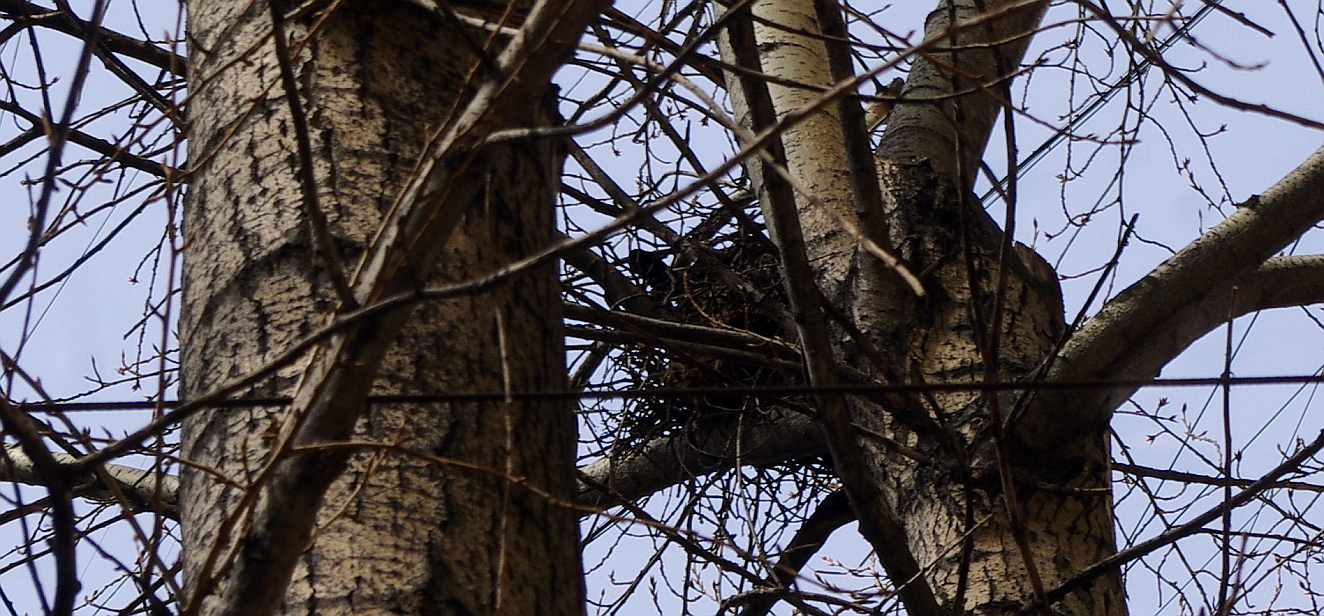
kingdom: Animalia
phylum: Chordata
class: Aves
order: Passeriformes
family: Corvidae
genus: Corvus
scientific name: Corvus cornix
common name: Hooded crow
